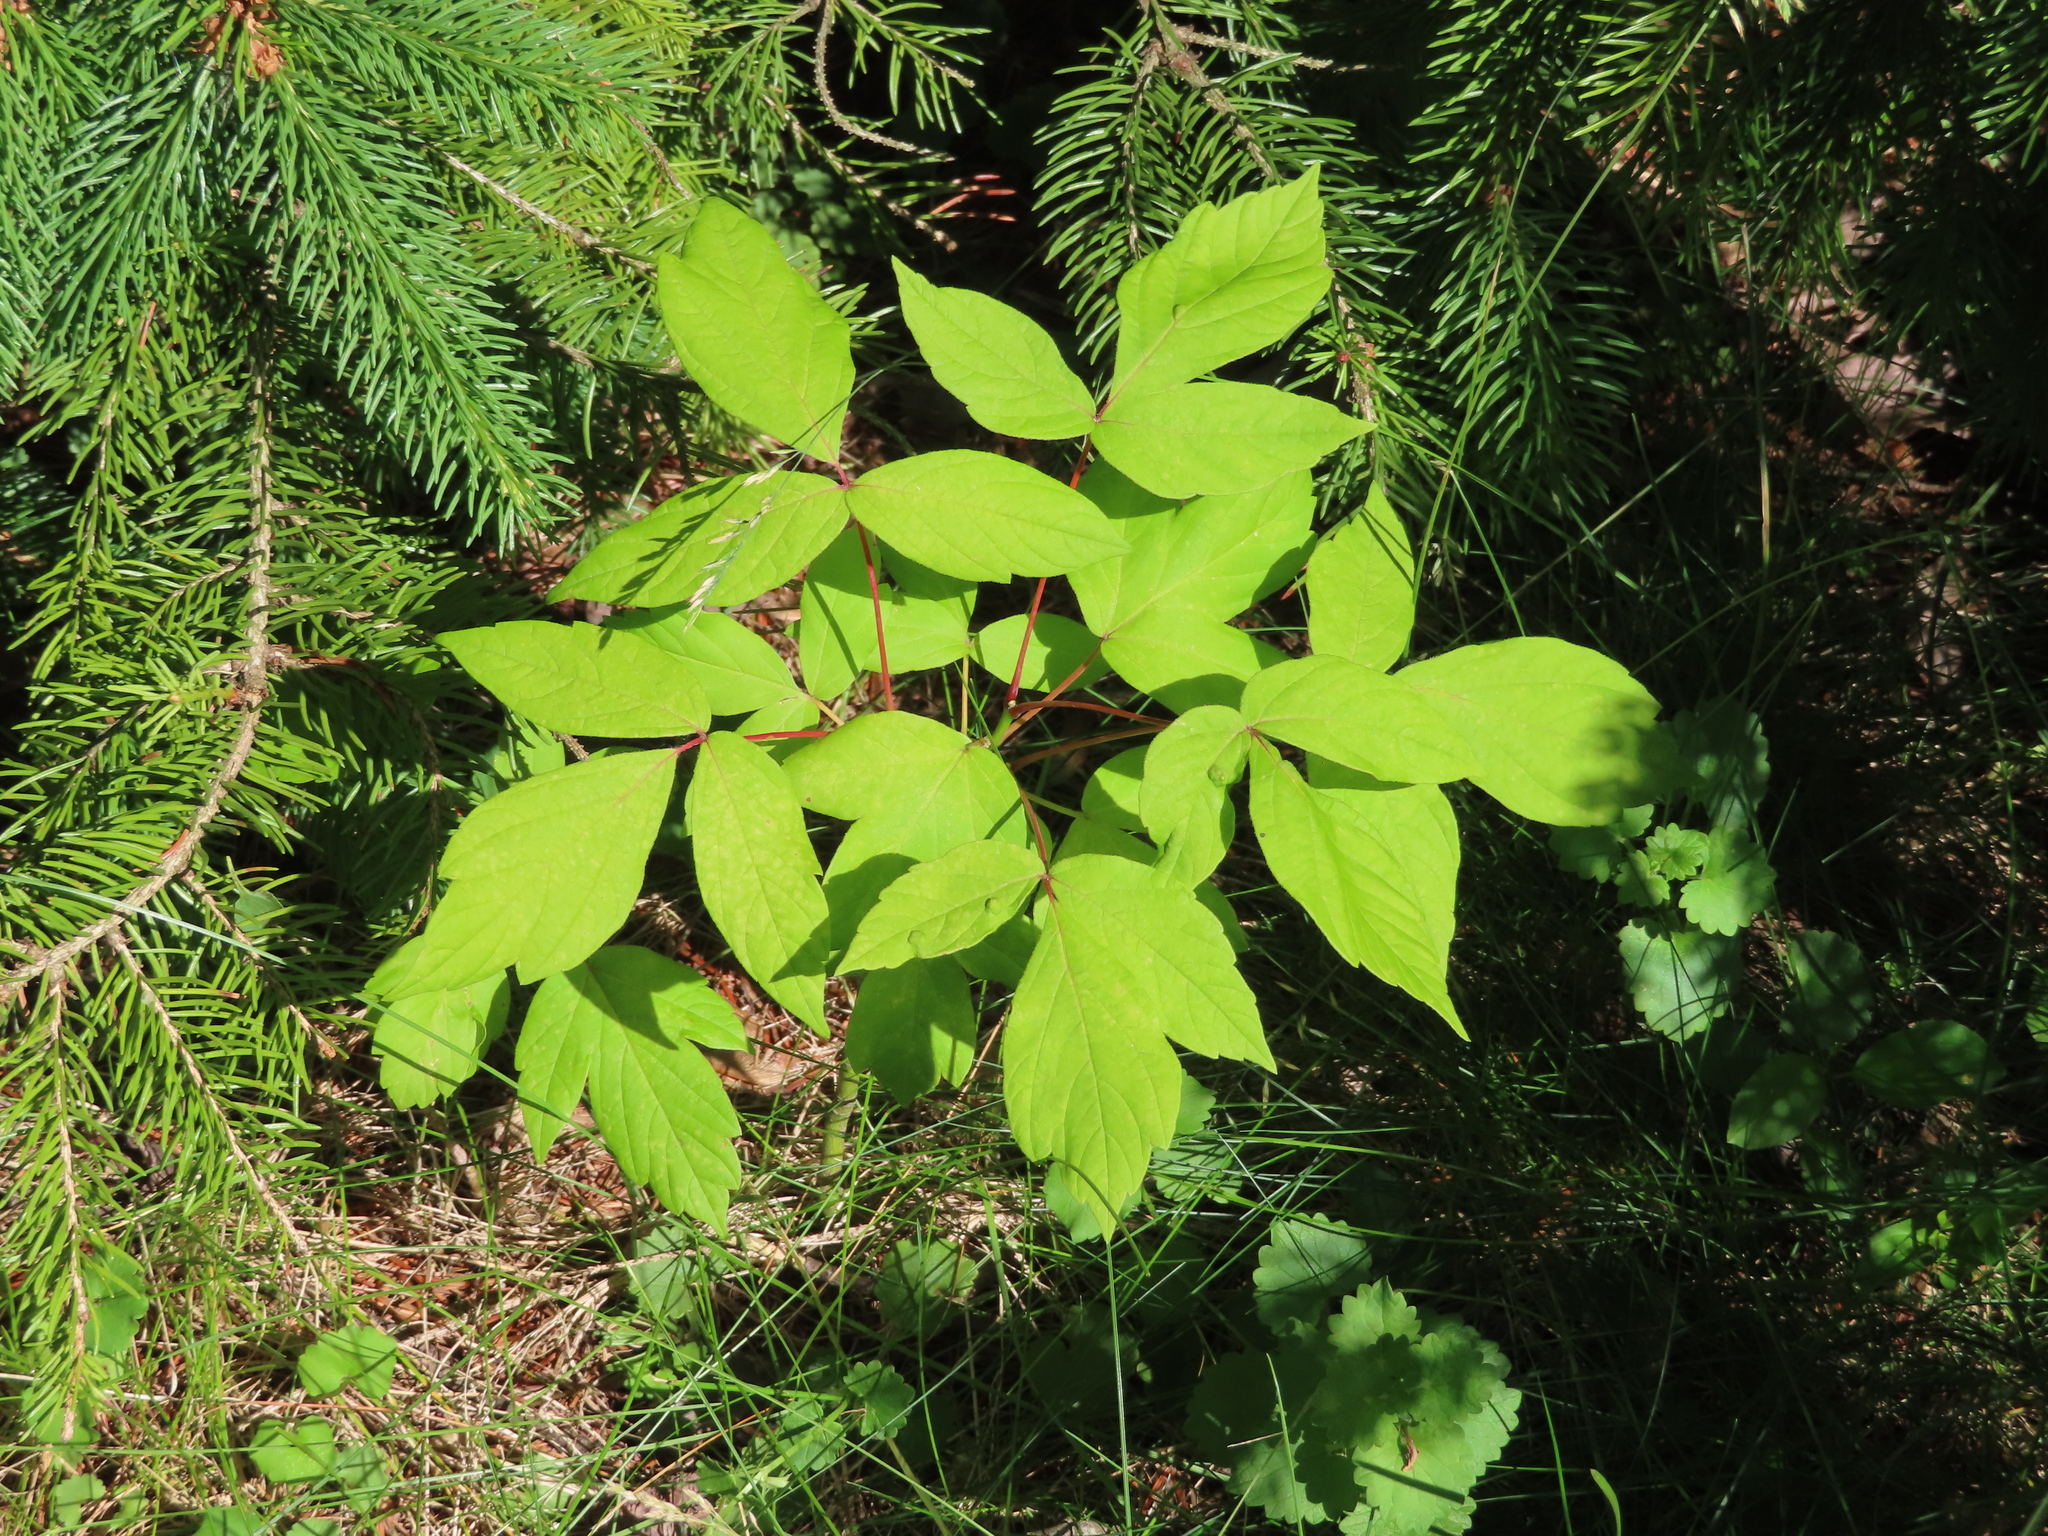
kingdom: Plantae
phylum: Tracheophyta
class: Magnoliopsida
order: Sapindales
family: Sapindaceae
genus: Acer
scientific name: Acer negundo
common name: Ashleaf maple
